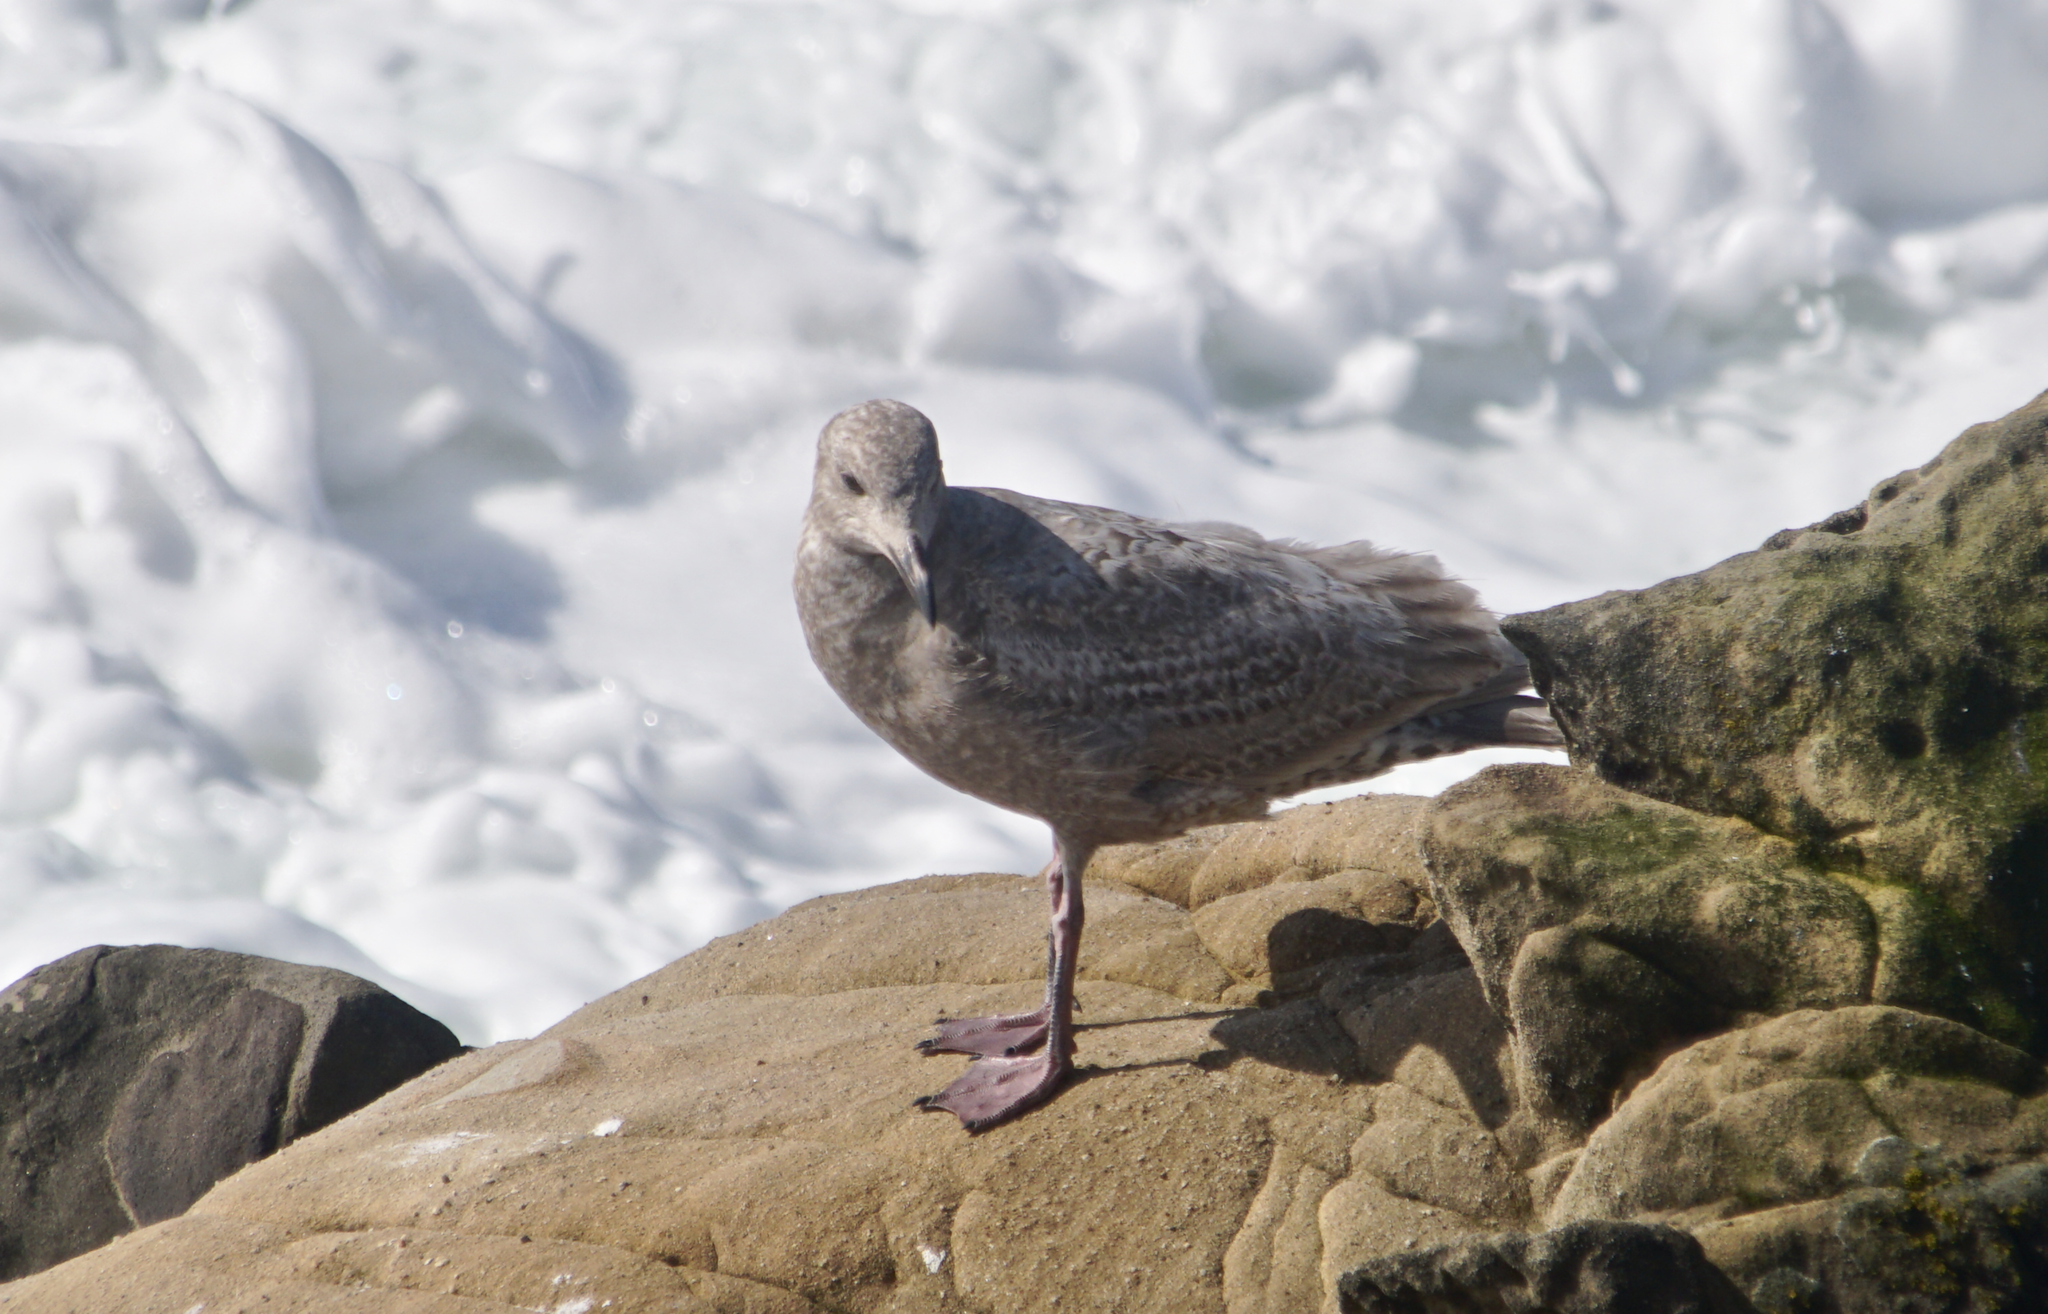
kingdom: Animalia
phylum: Chordata
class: Aves
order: Charadriiformes
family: Laridae
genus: Larus
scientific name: Larus occidentalis
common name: Western gull
